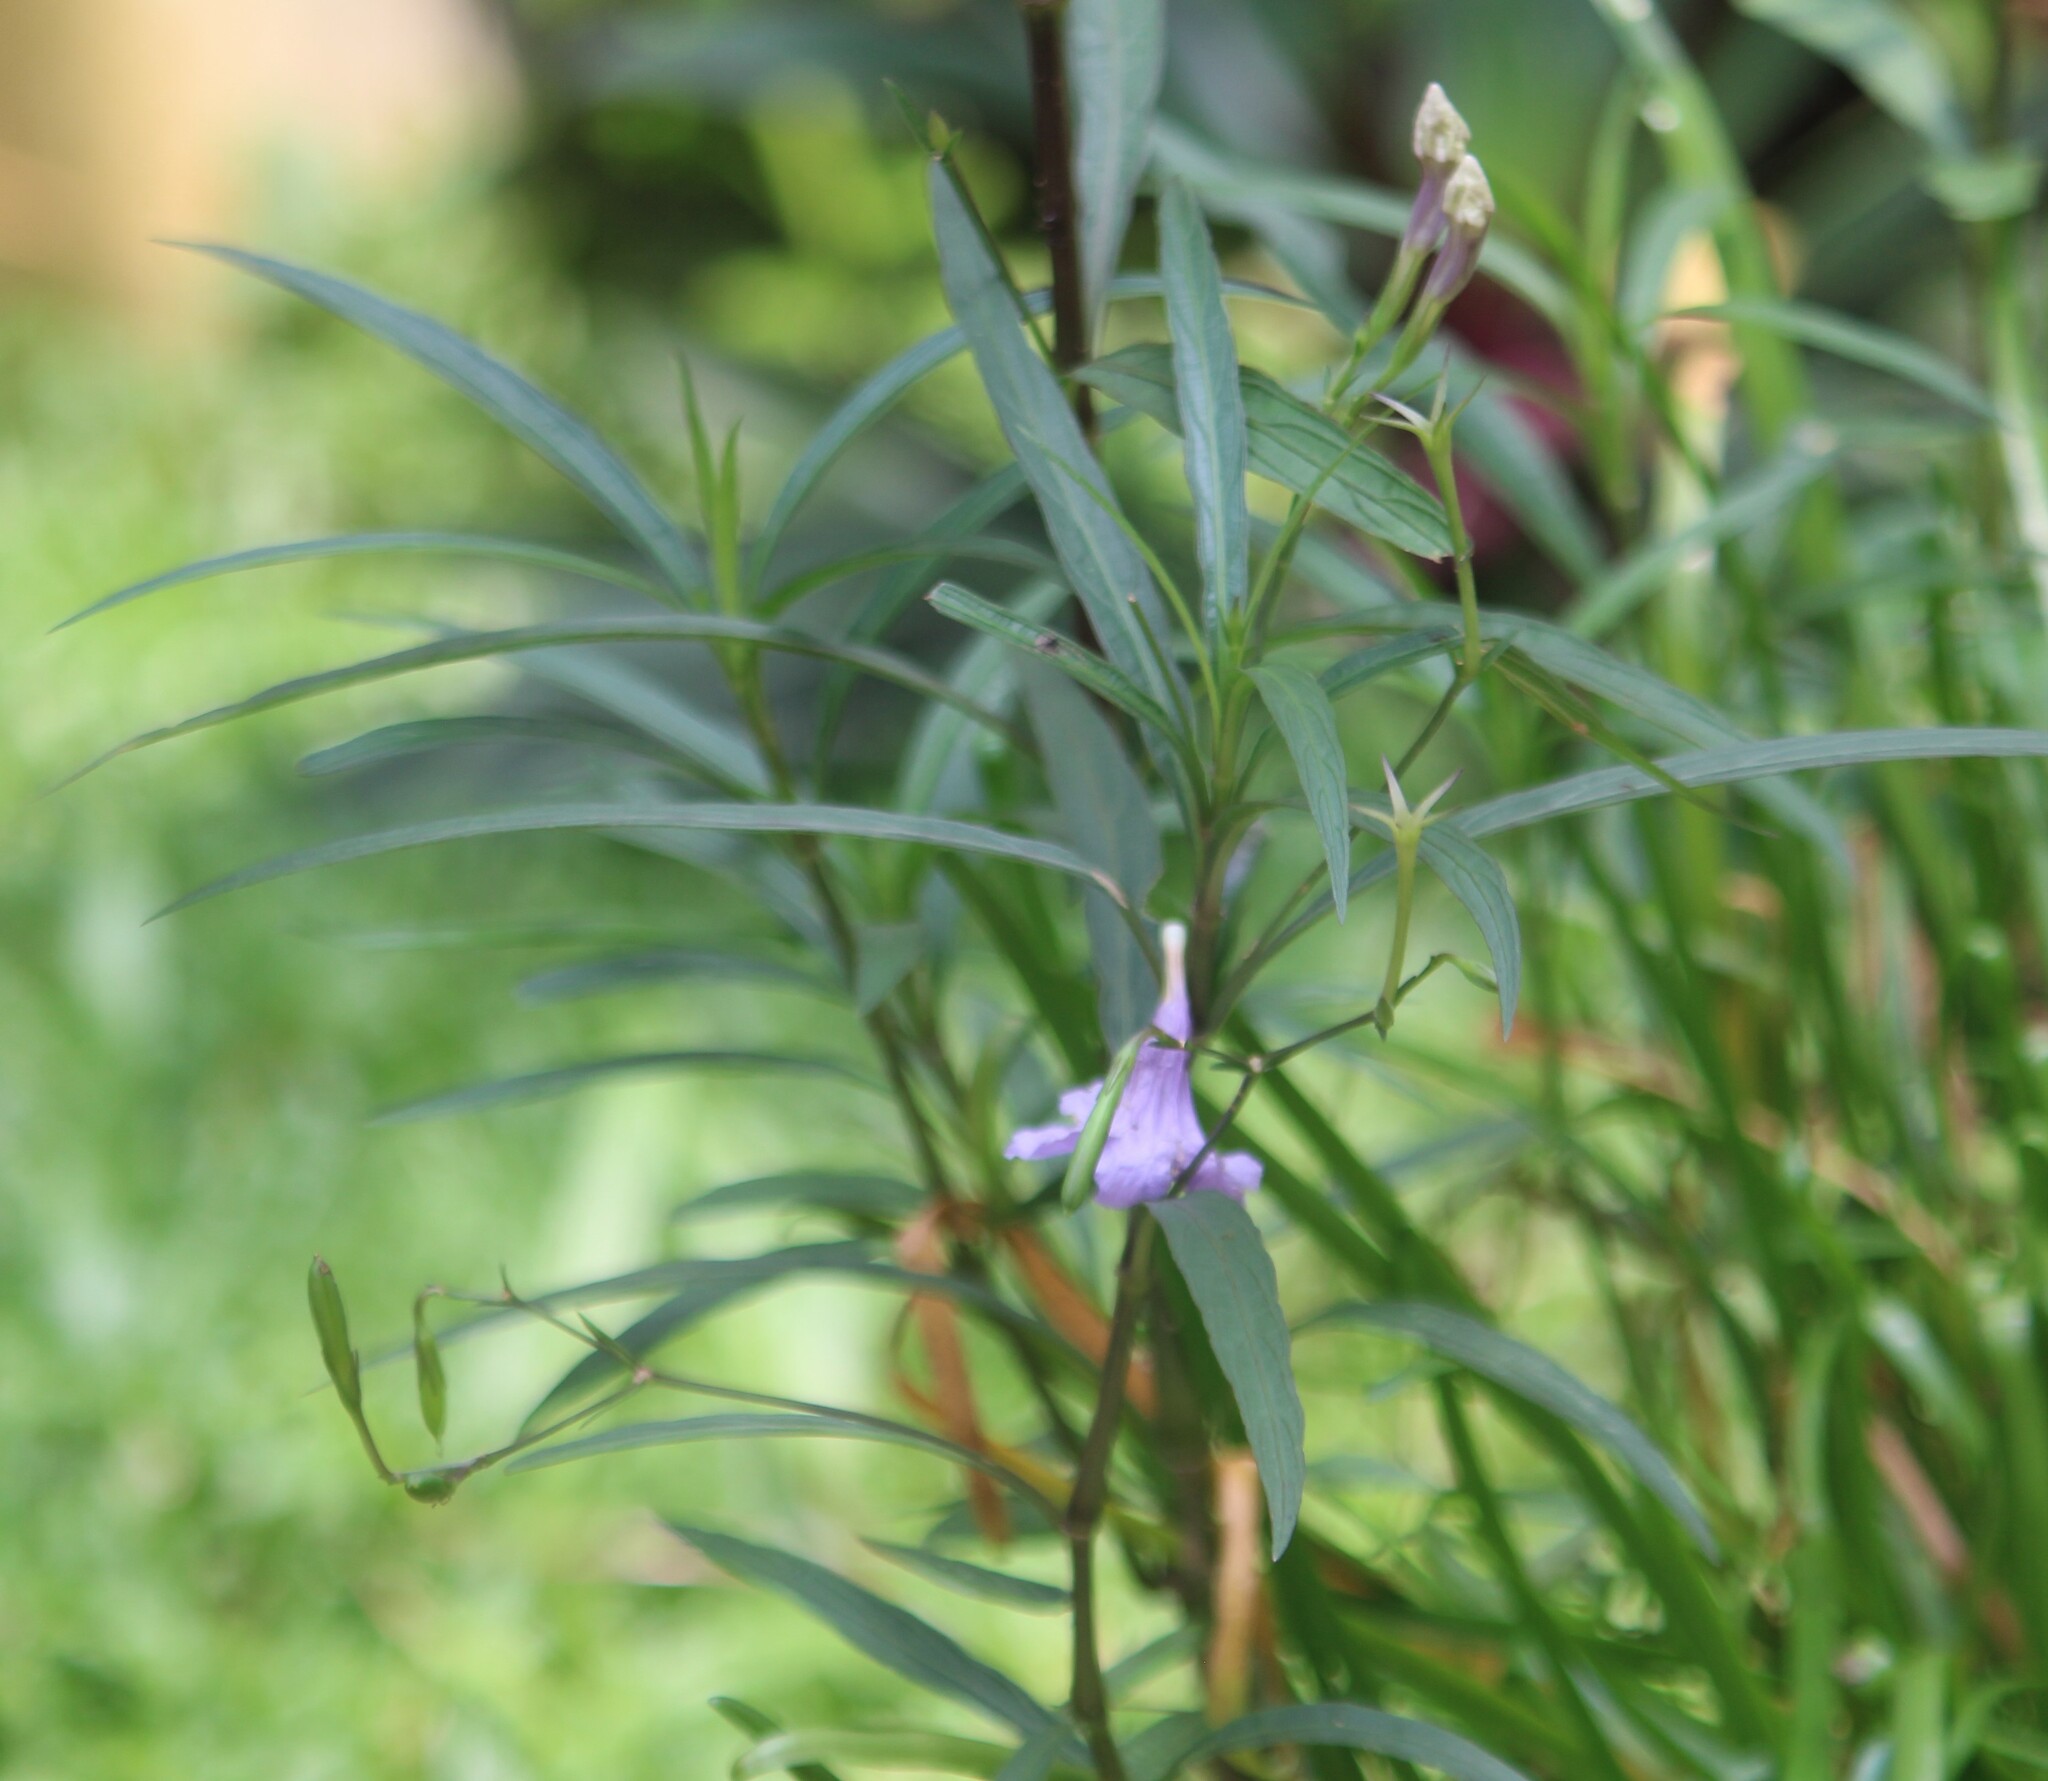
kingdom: Plantae
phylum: Tracheophyta
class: Magnoliopsida
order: Lamiales
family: Acanthaceae
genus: Ruellia
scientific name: Ruellia simplex
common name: Softseed wild petunia
